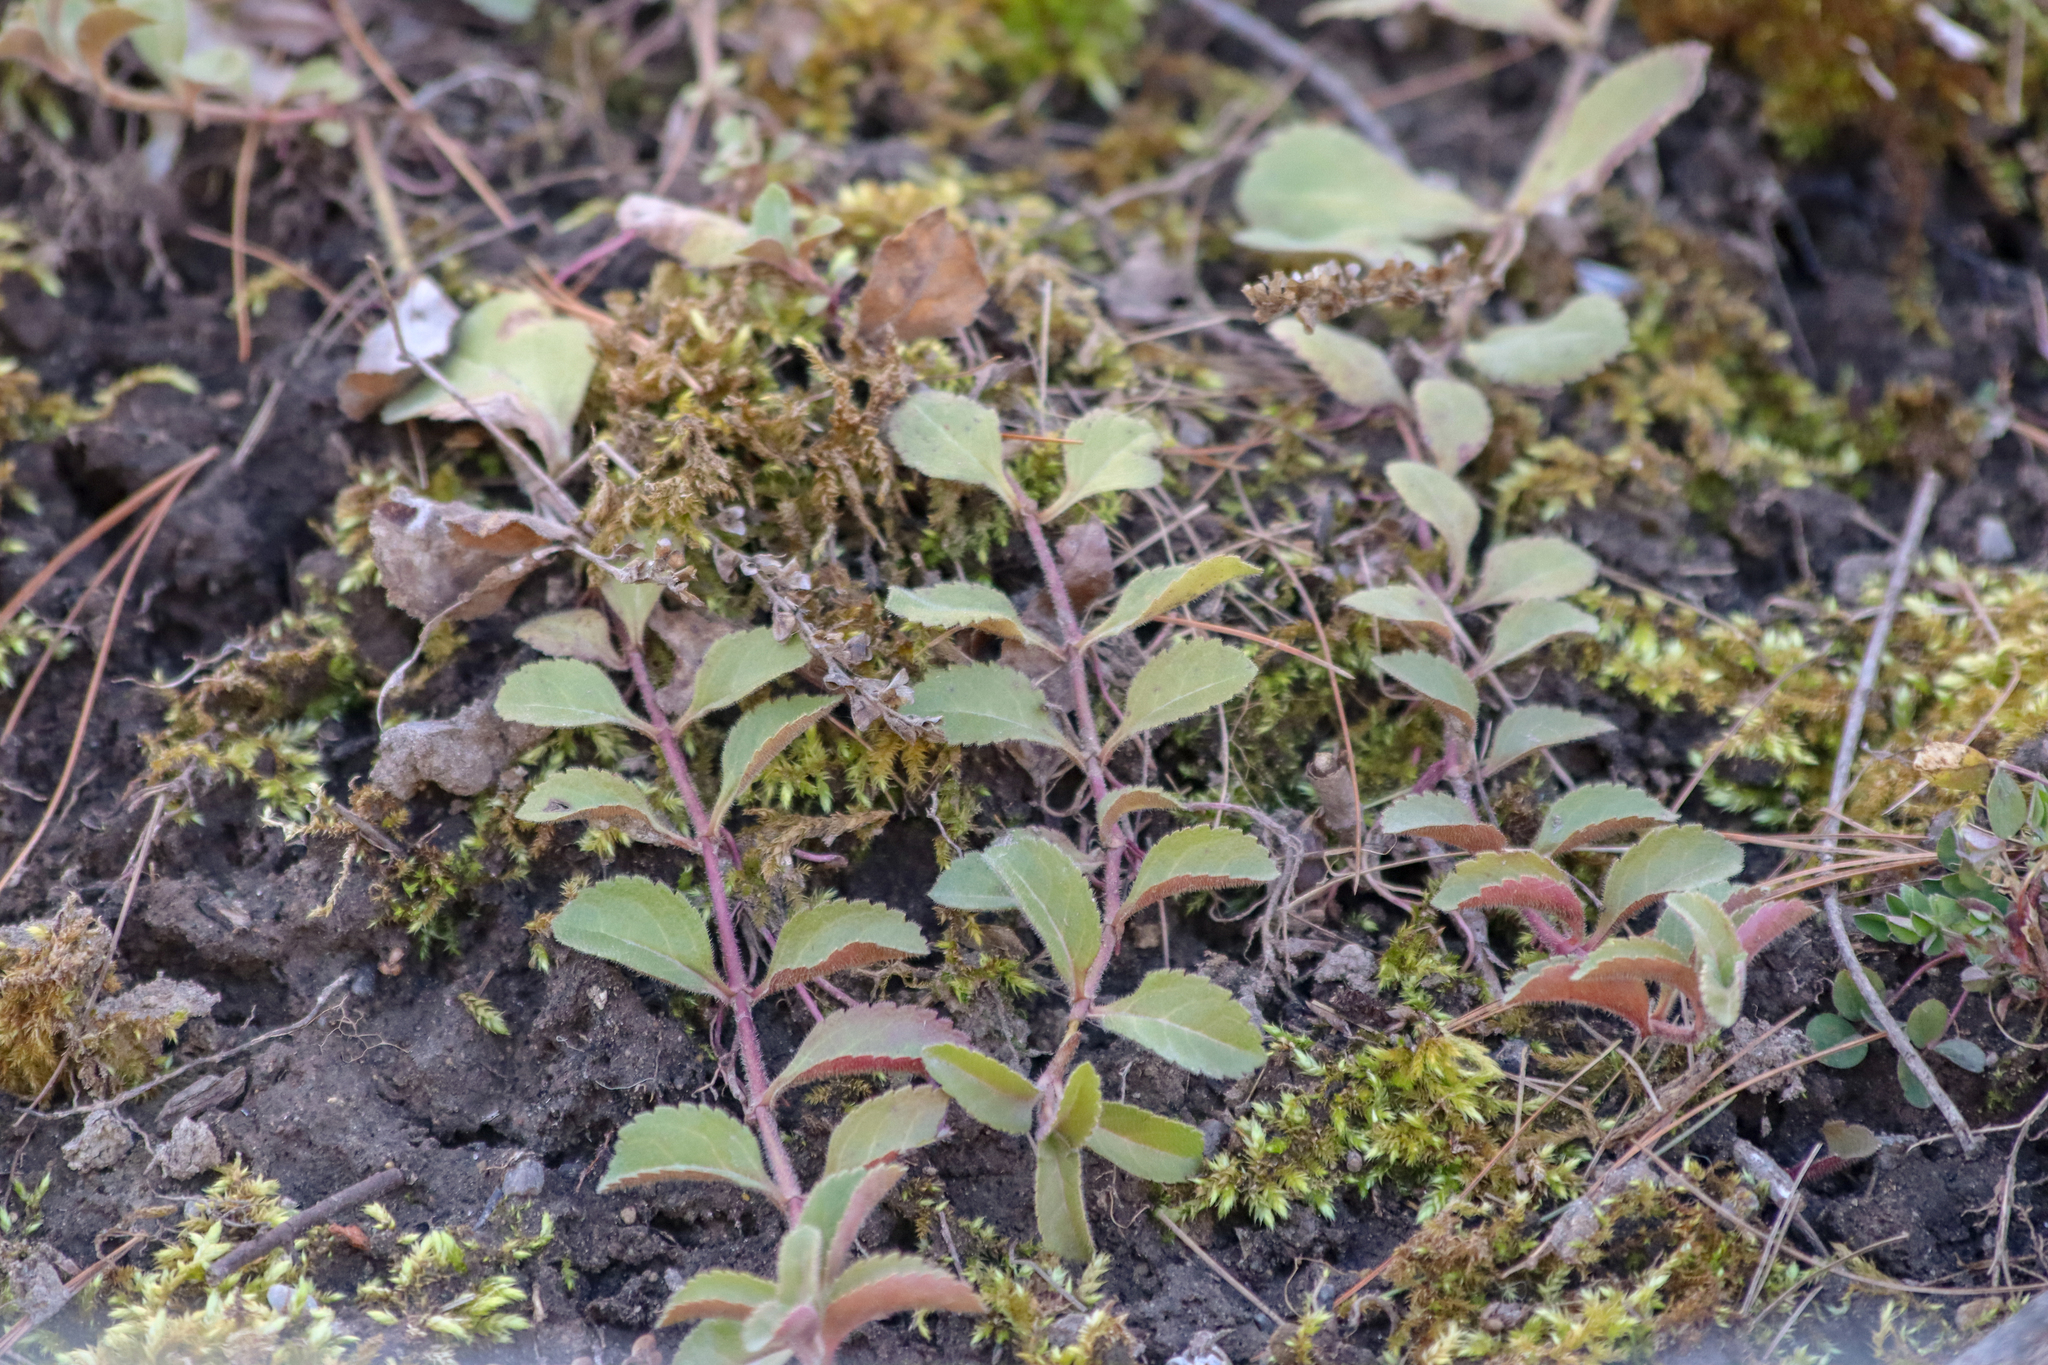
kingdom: Plantae
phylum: Tracheophyta
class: Magnoliopsida
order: Lamiales
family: Plantaginaceae
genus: Veronica
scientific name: Veronica officinalis
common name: Common speedwell
